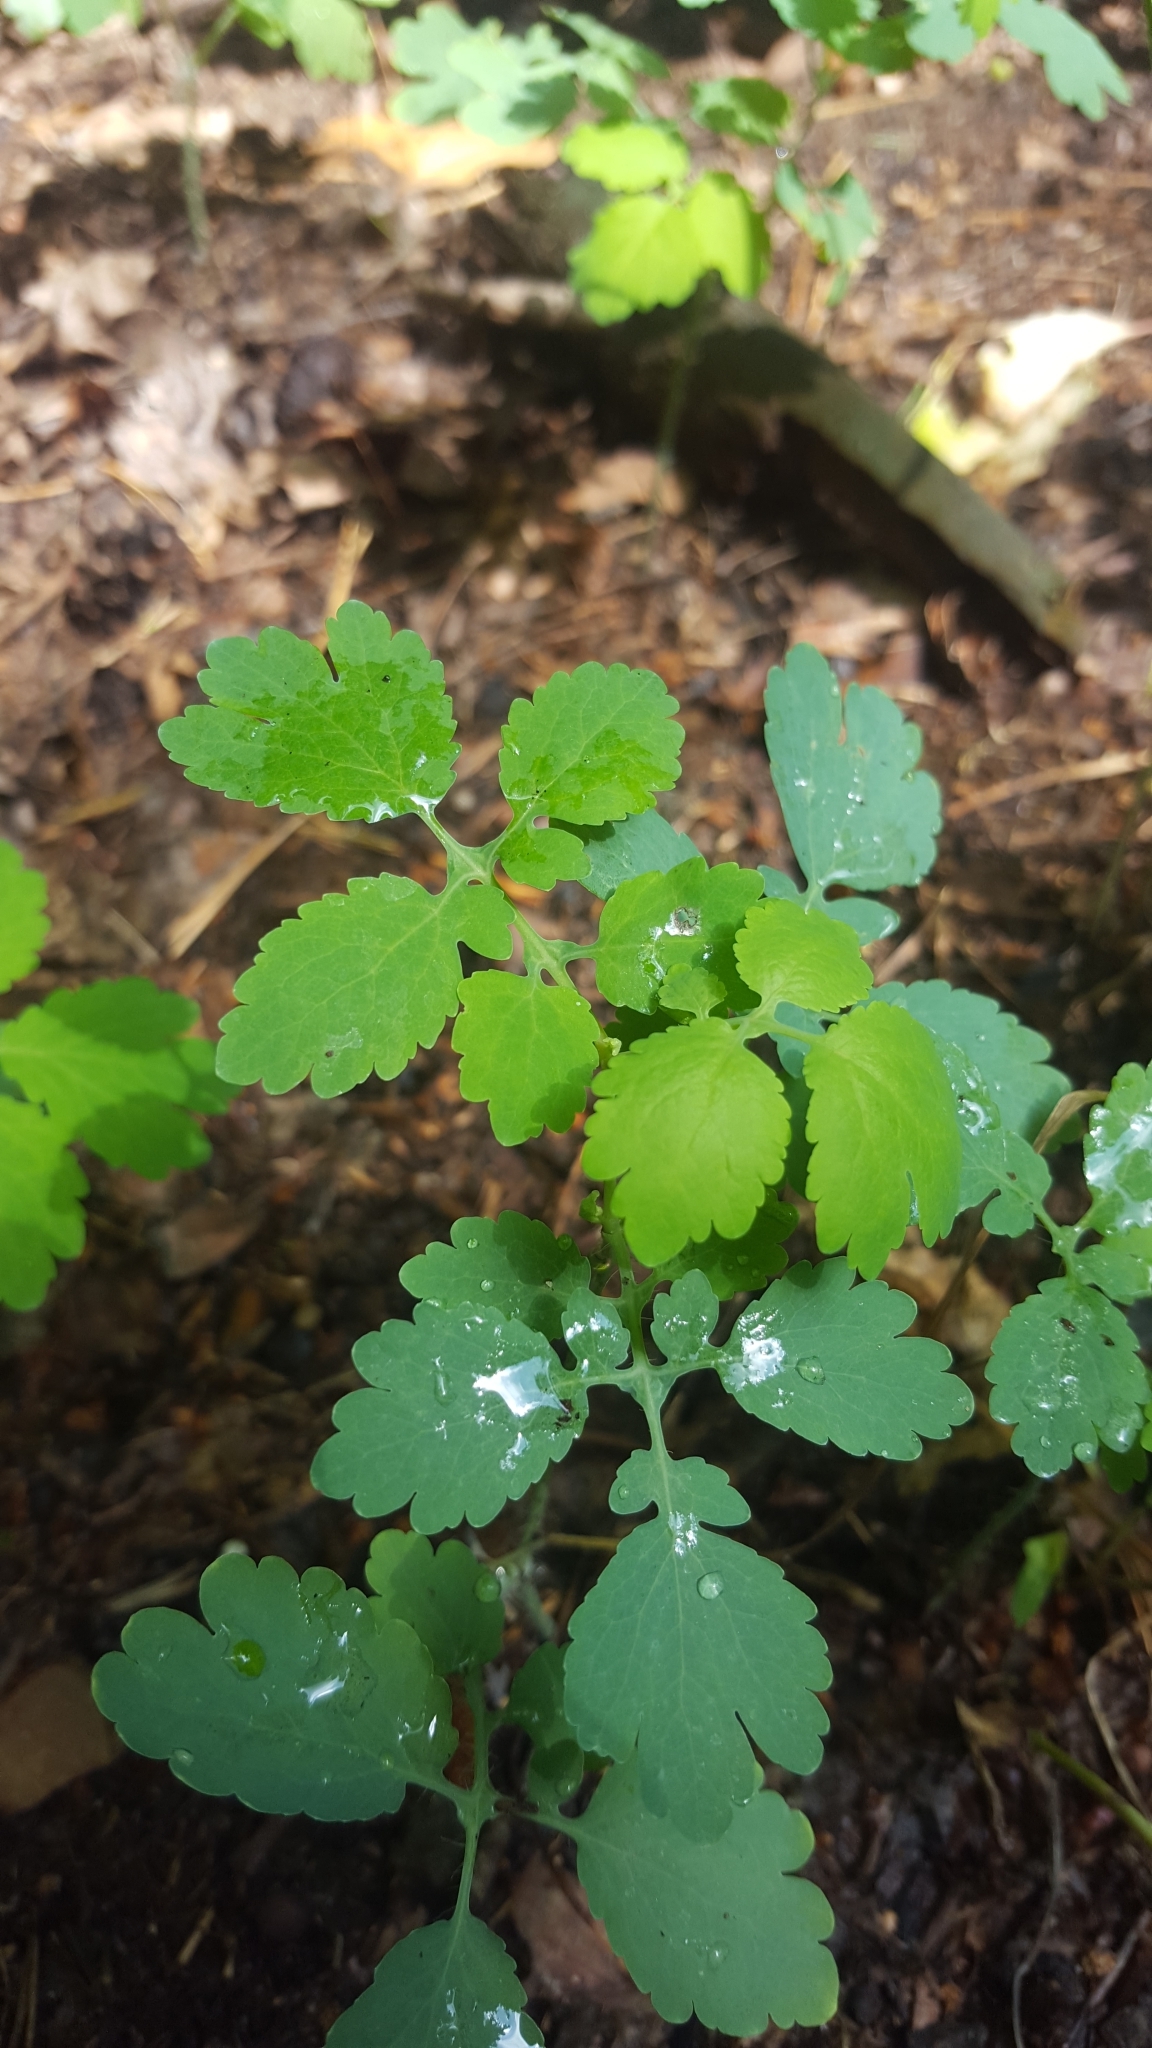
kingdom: Plantae
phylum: Tracheophyta
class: Magnoliopsida
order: Ranunculales
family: Papaveraceae
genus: Chelidonium
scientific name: Chelidonium majus
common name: Greater celandine
